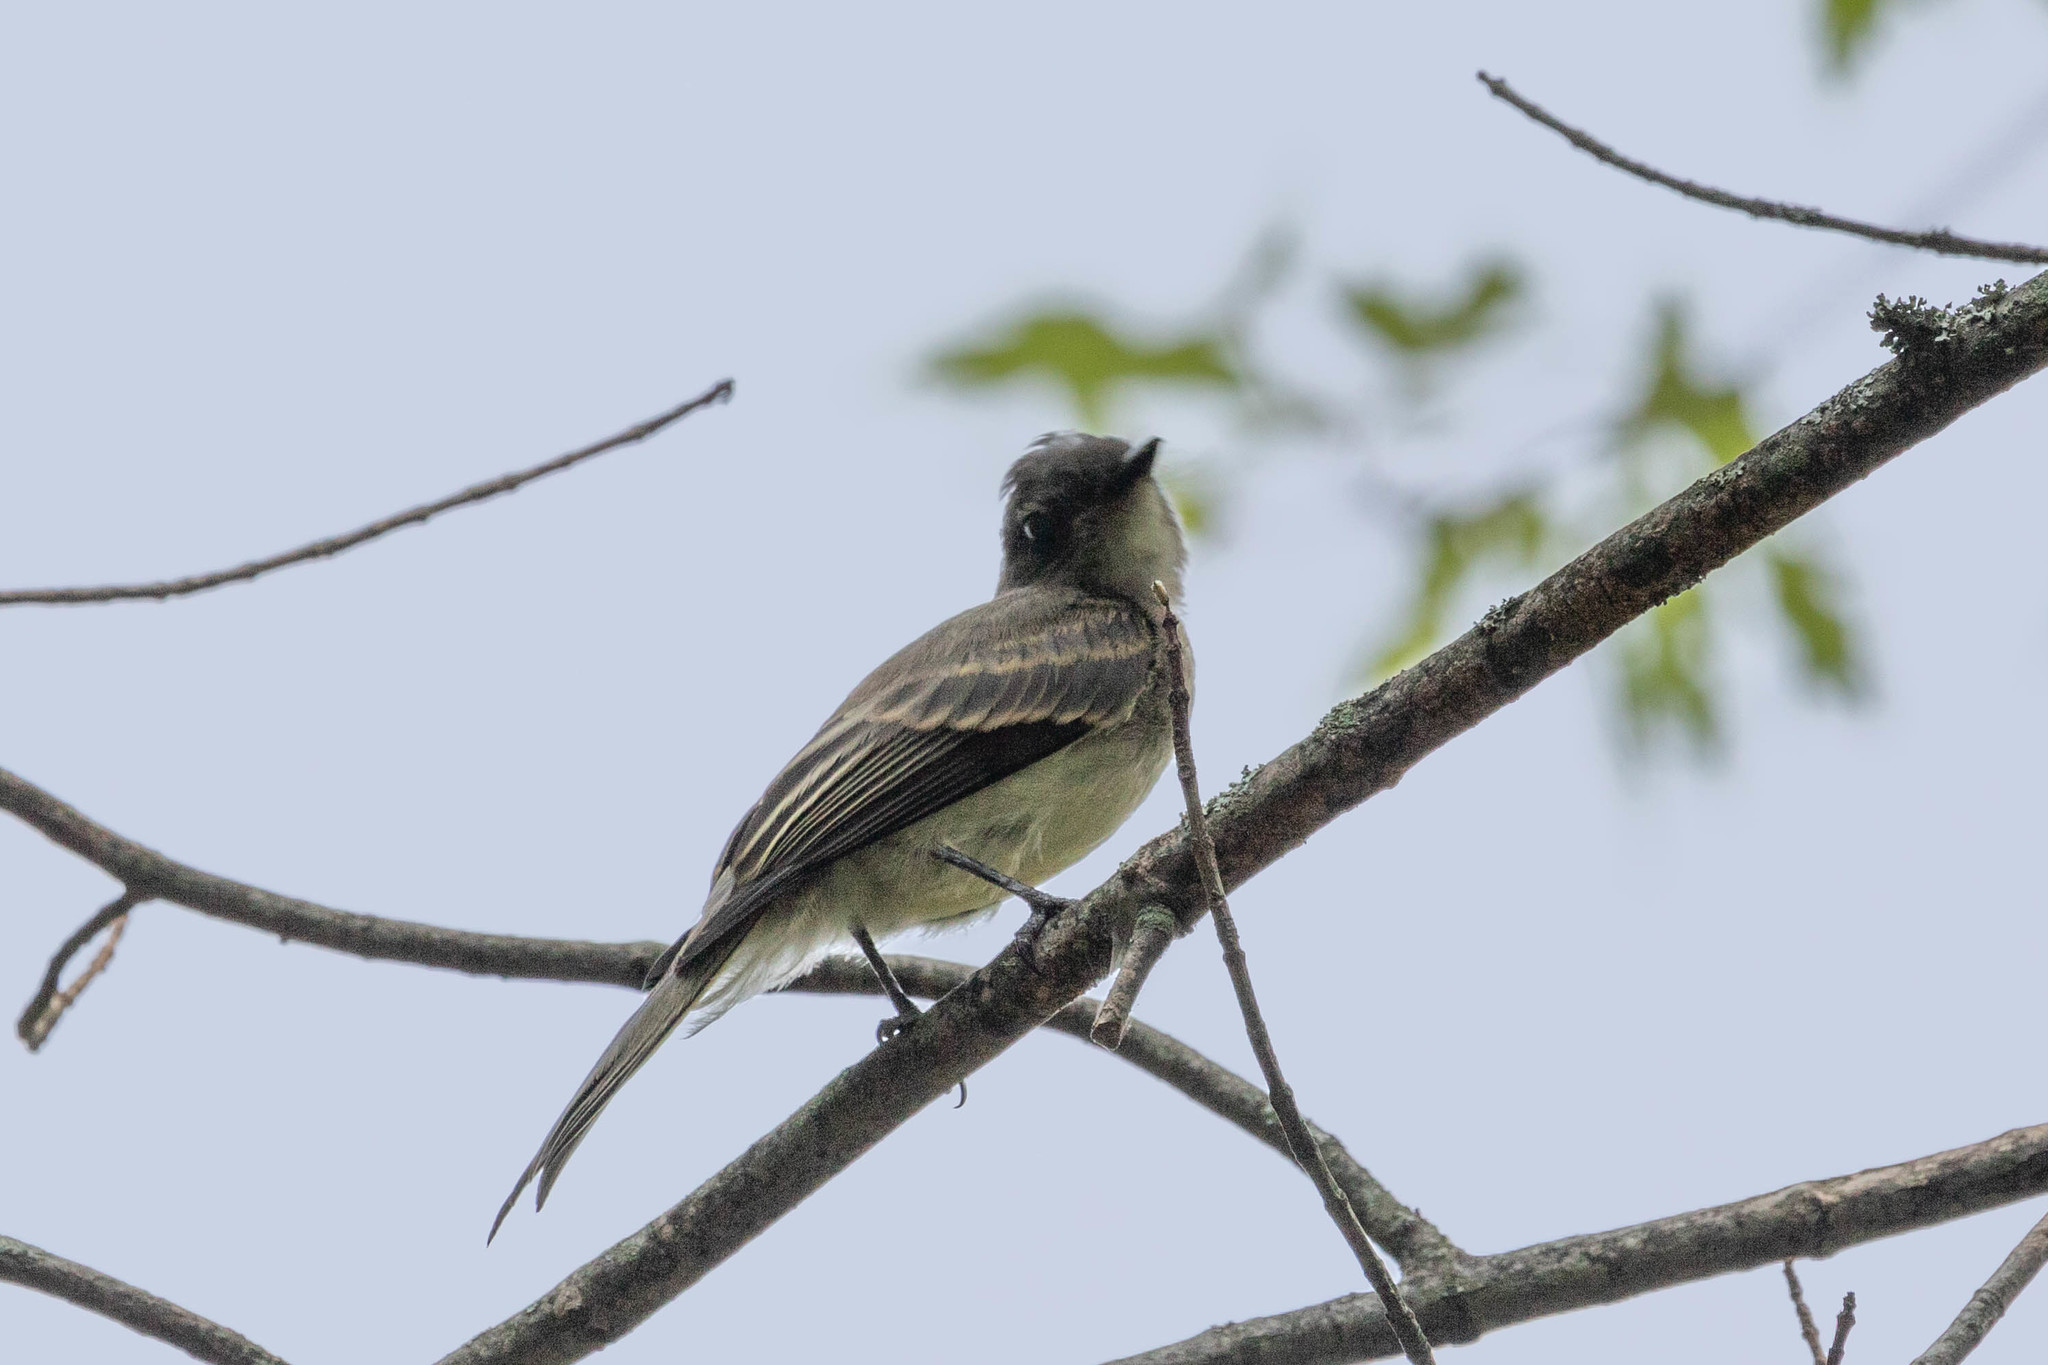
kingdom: Animalia
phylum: Chordata
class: Aves
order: Passeriformes
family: Tyrannidae
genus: Sayornis
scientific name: Sayornis phoebe
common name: Eastern phoebe
